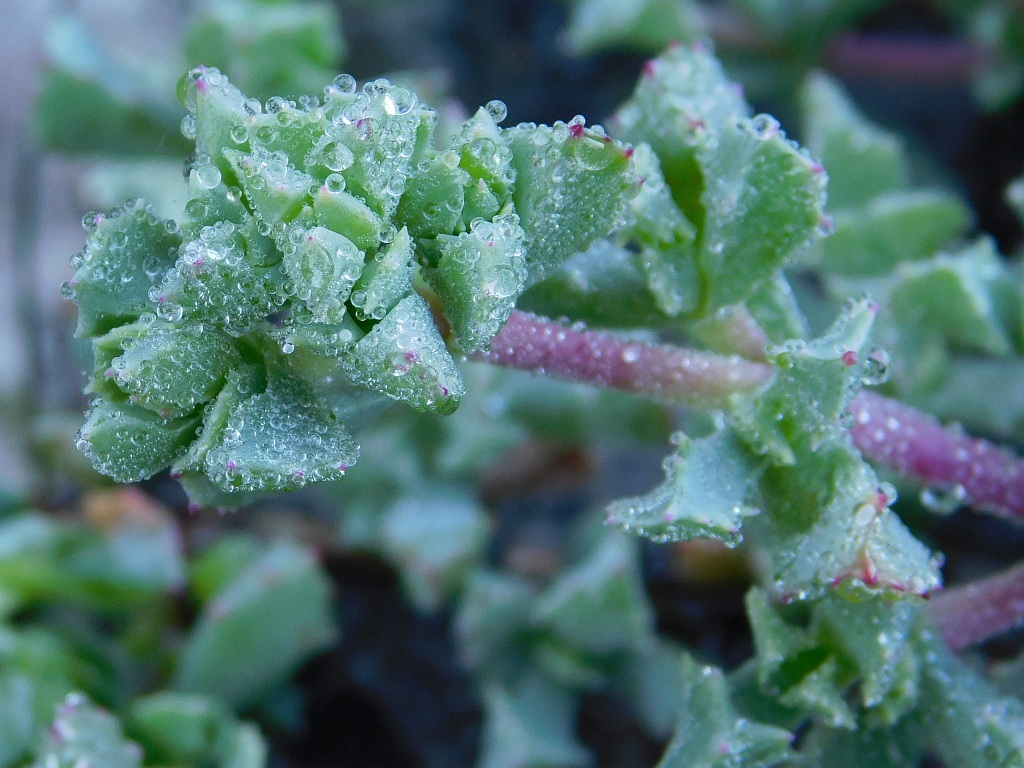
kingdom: Plantae
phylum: Tracheophyta
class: Magnoliopsida
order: Caryophyllales
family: Aizoaceae
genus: Oscularia
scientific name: Oscularia deltoides
